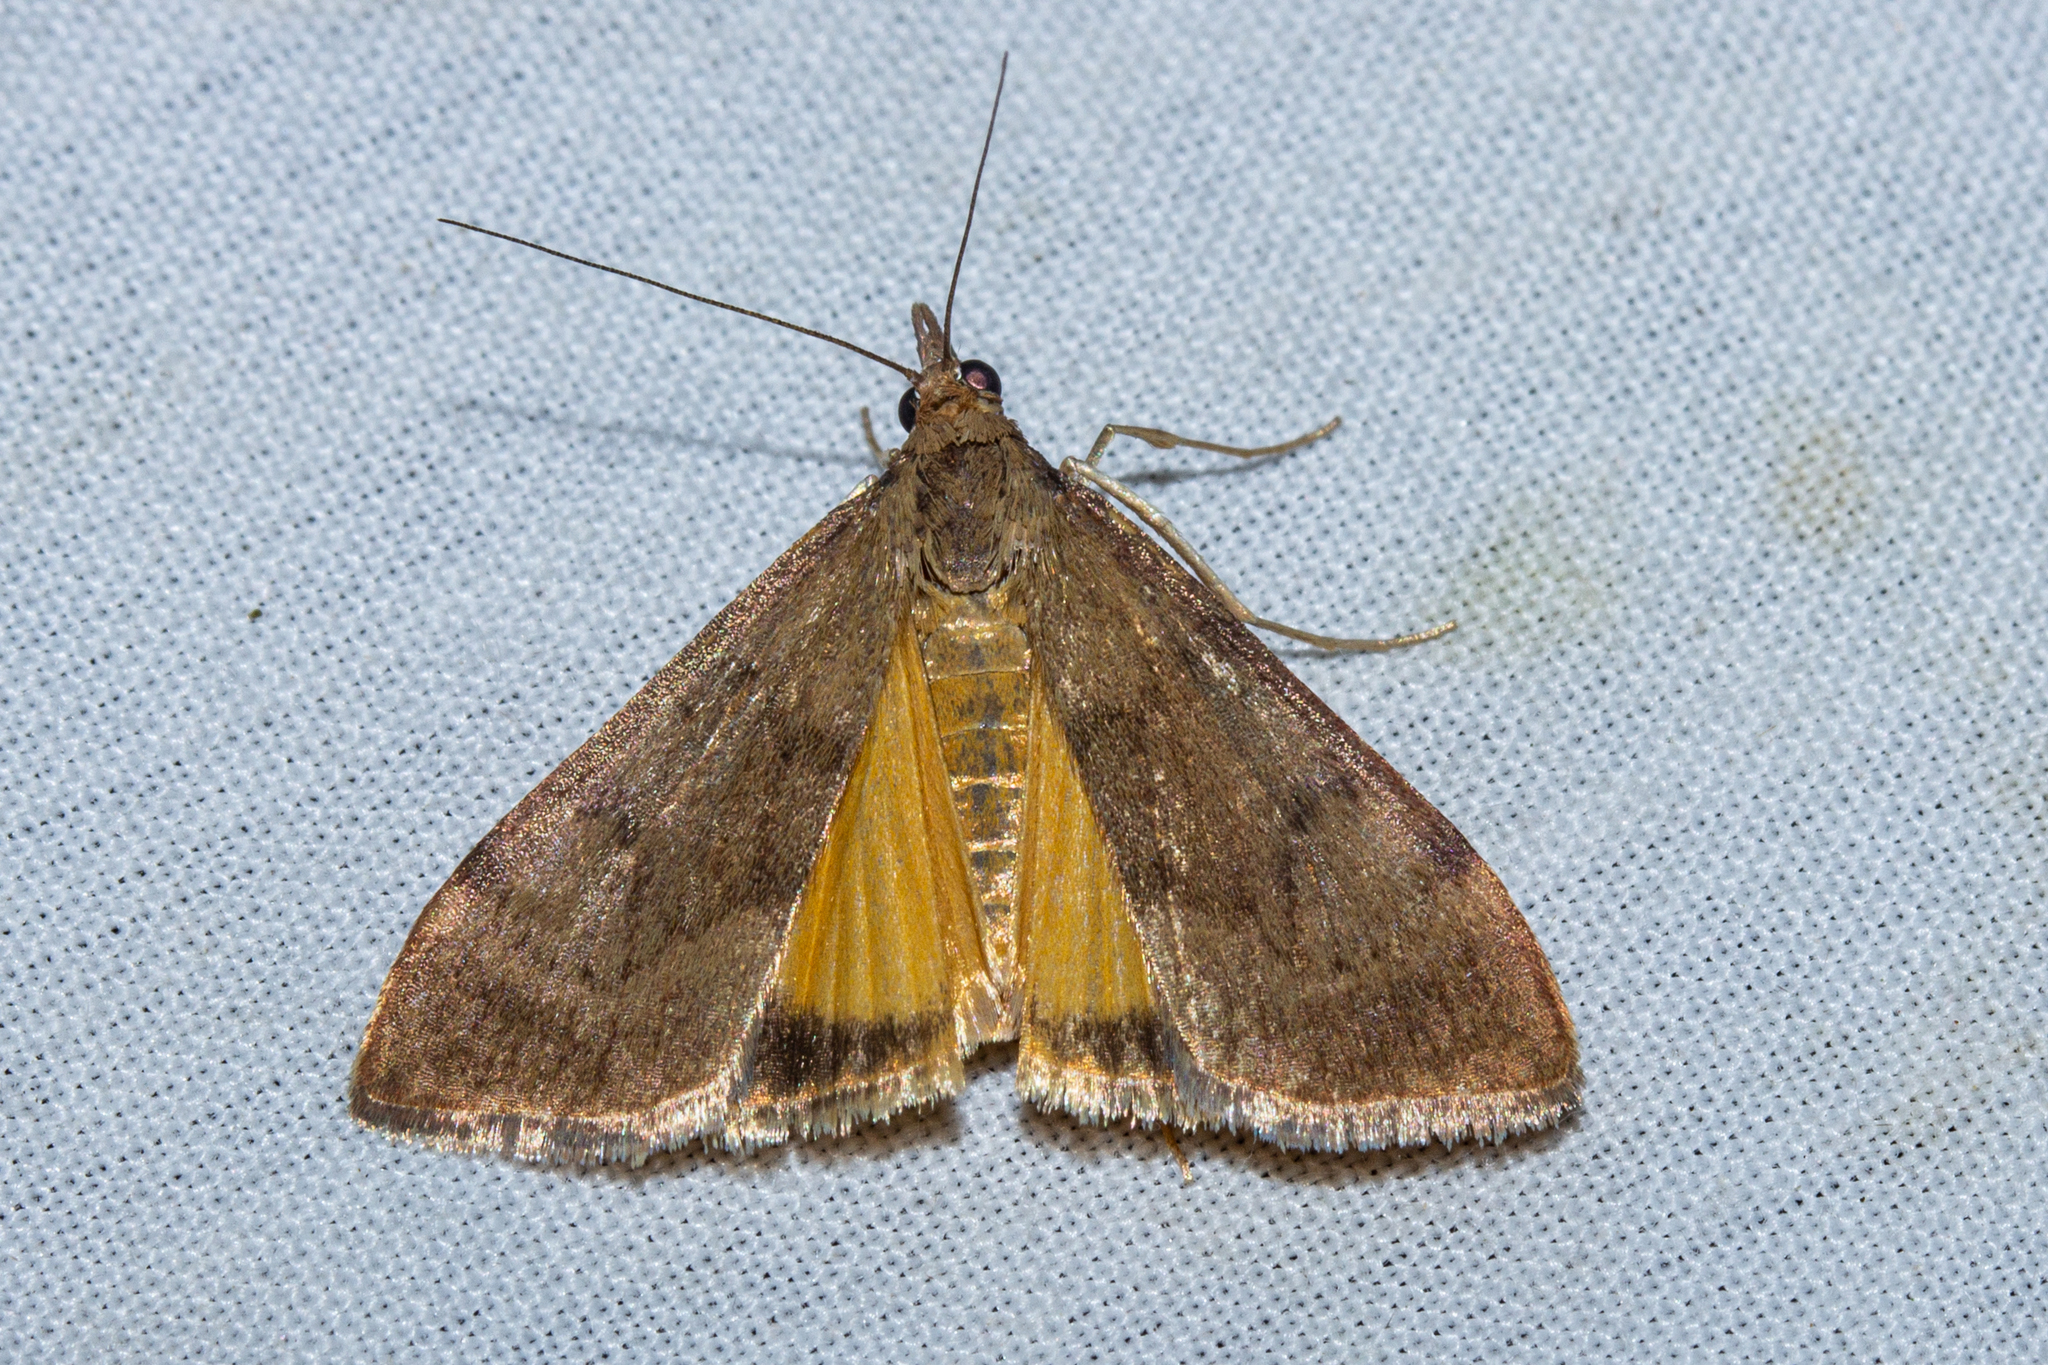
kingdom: Animalia
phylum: Arthropoda
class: Insecta
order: Lepidoptera
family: Crambidae
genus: Uresiphita
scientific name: Uresiphita
